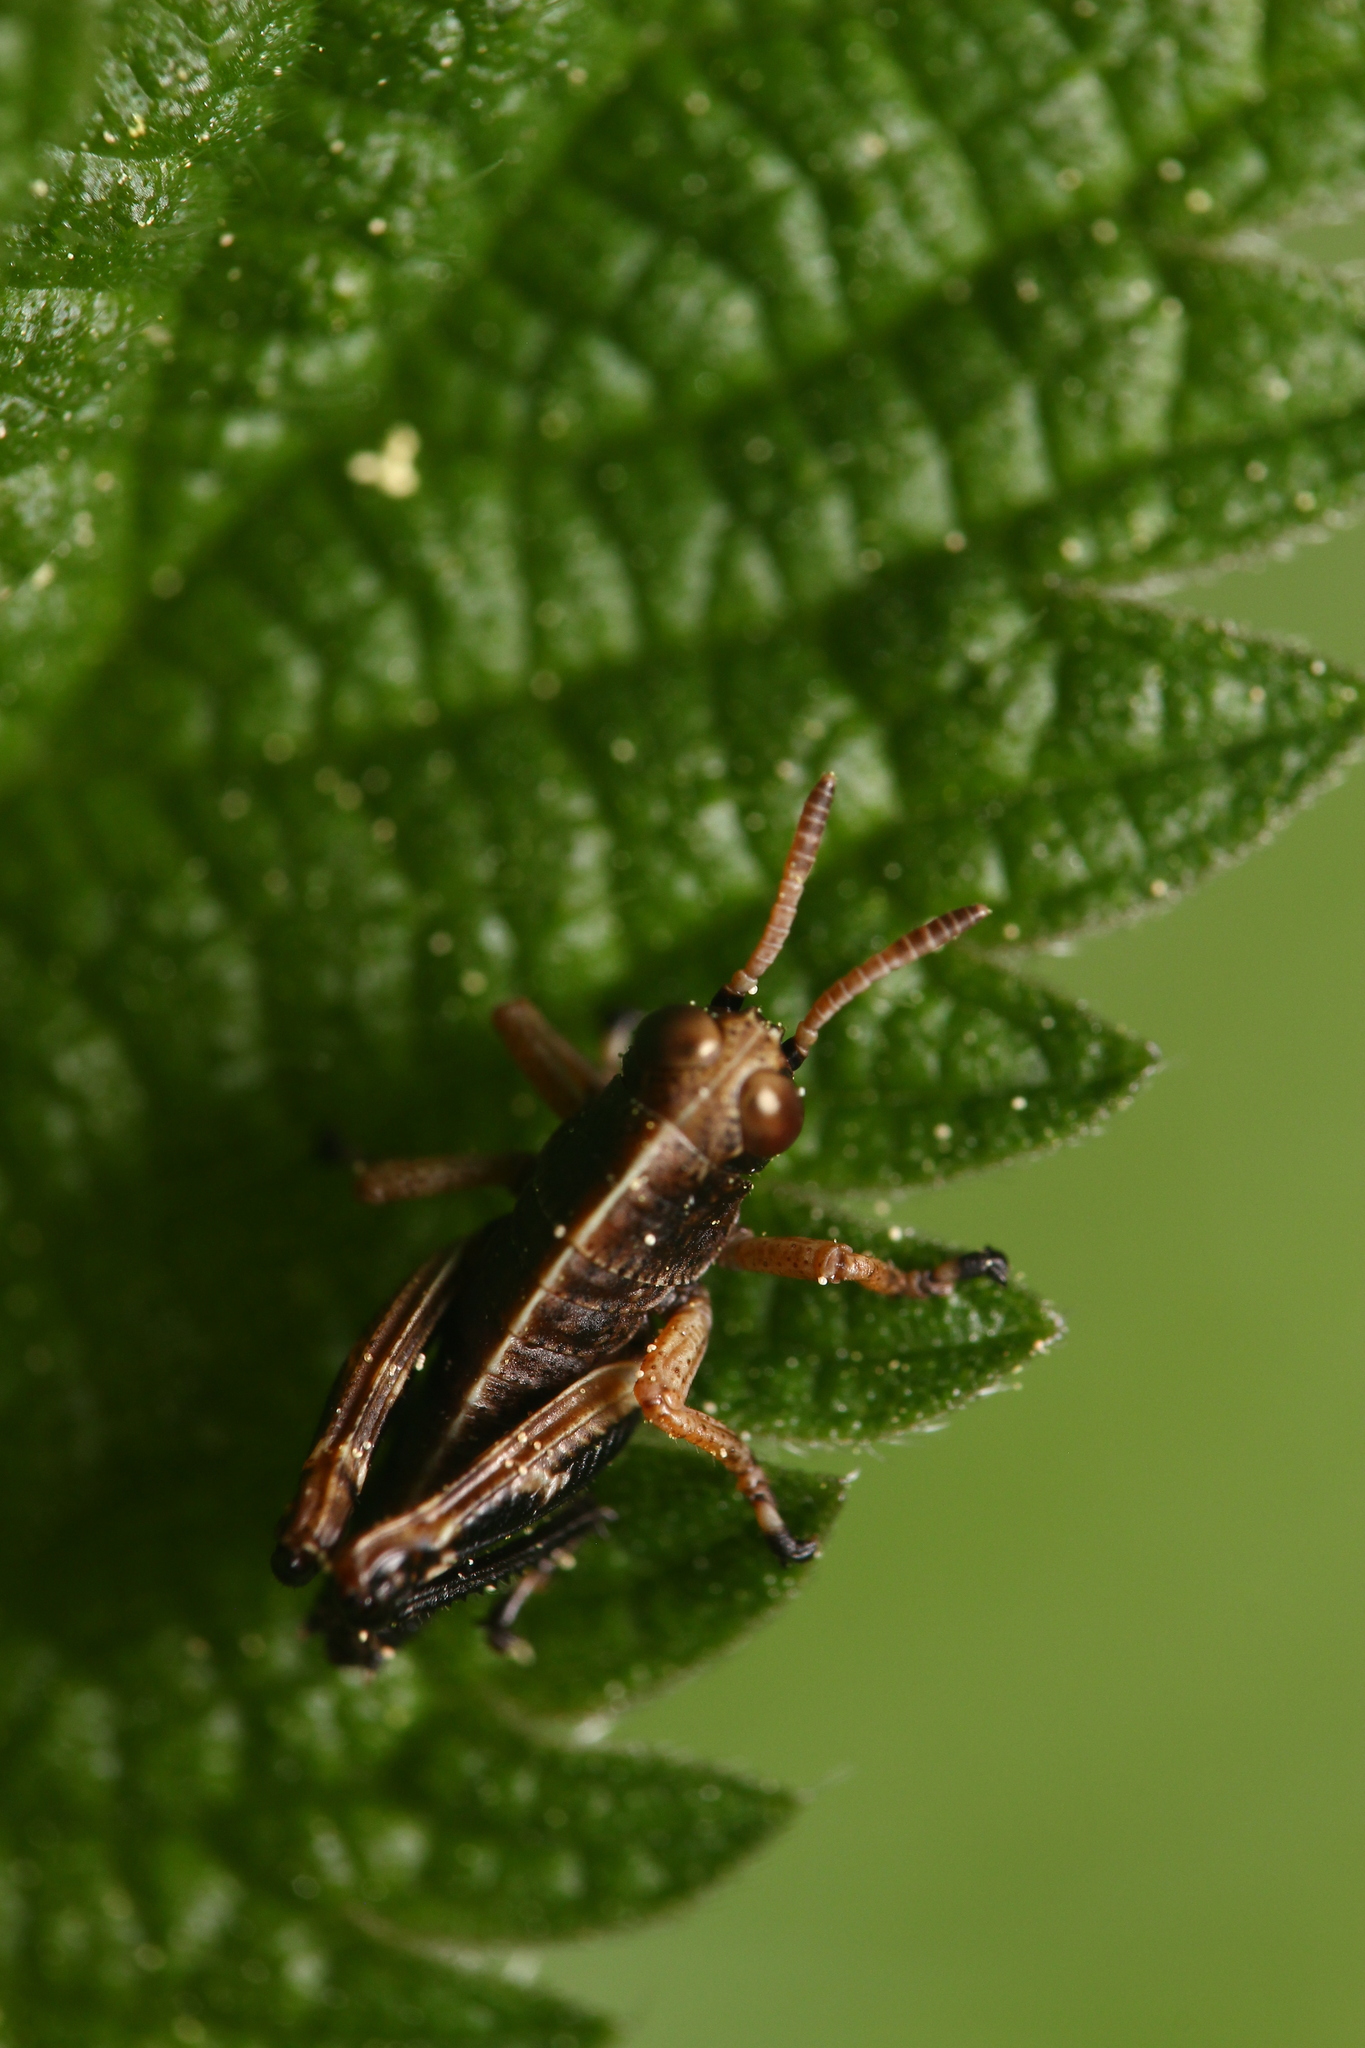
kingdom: Animalia
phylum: Arthropoda
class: Insecta
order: Orthoptera
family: Acrididae
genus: Miramella
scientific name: Miramella alpina
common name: Green mountain grasshopper
